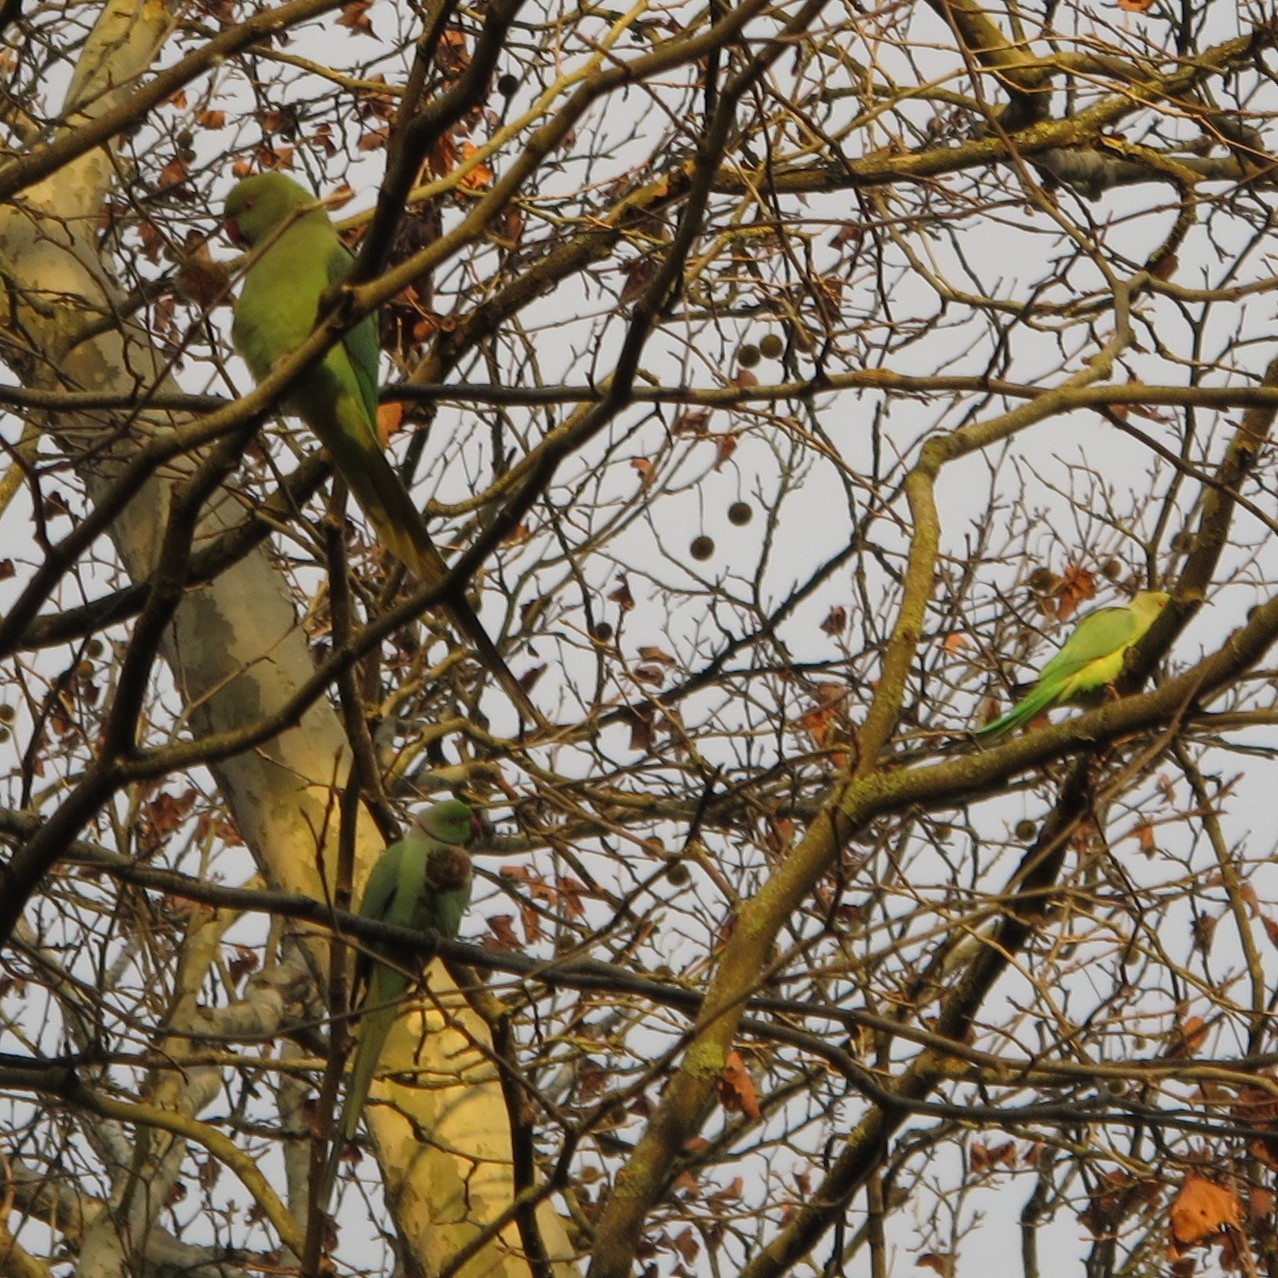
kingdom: Animalia
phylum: Chordata
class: Aves
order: Psittaciformes
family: Psittacidae
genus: Psittacula
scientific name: Psittacula krameri
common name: Rose-ringed parakeet
